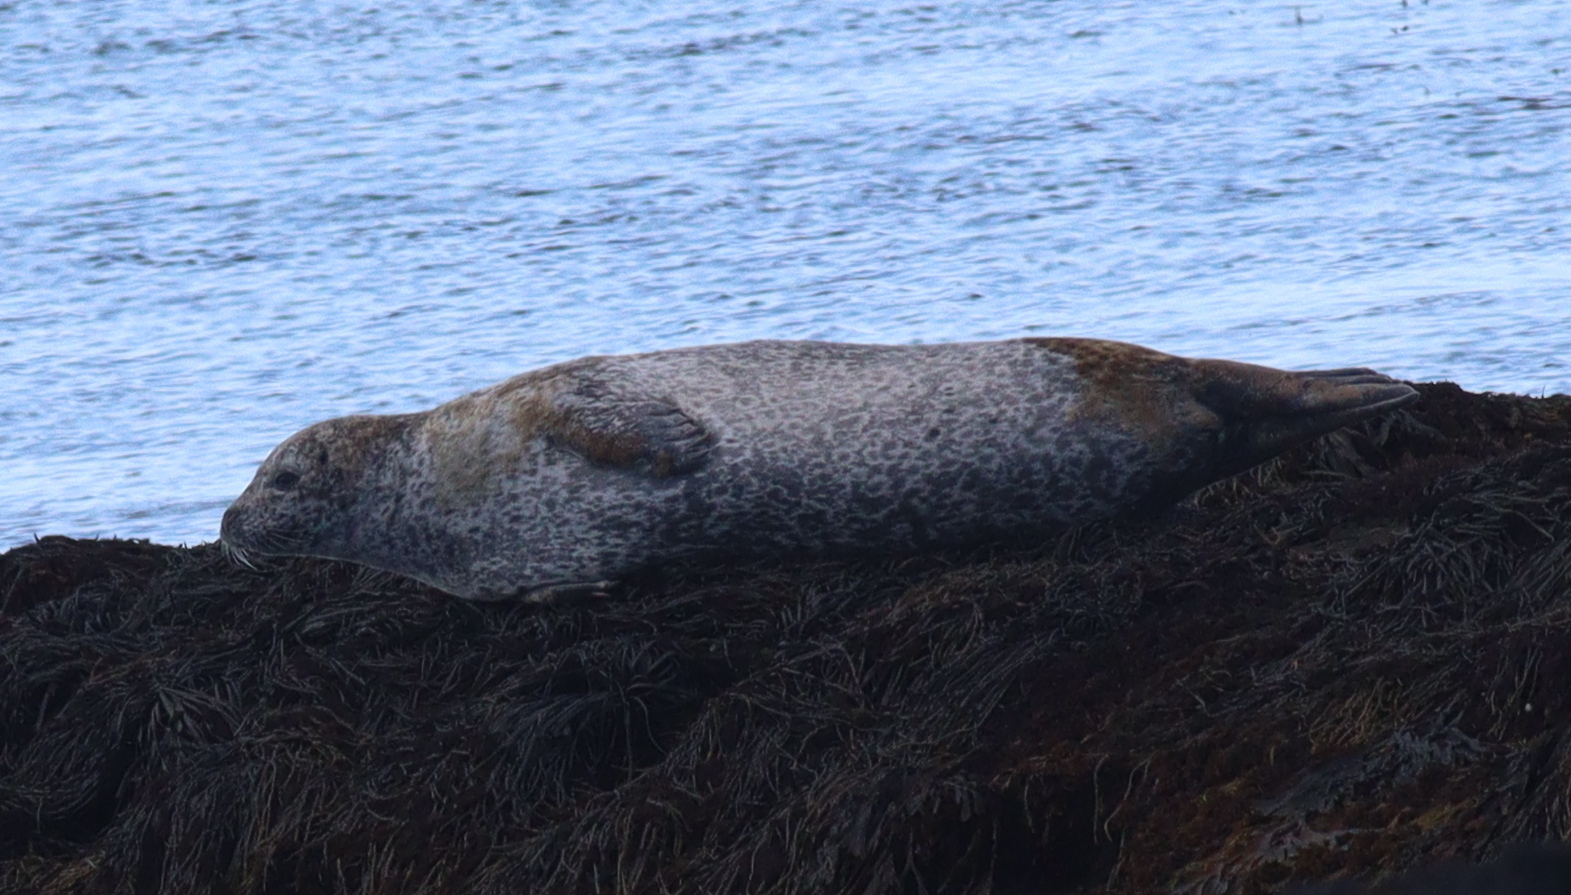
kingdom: Animalia
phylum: Chordata
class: Mammalia
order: Carnivora
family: Phocidae
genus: Phoca
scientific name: Phoca vitulina
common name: Harbor seal
